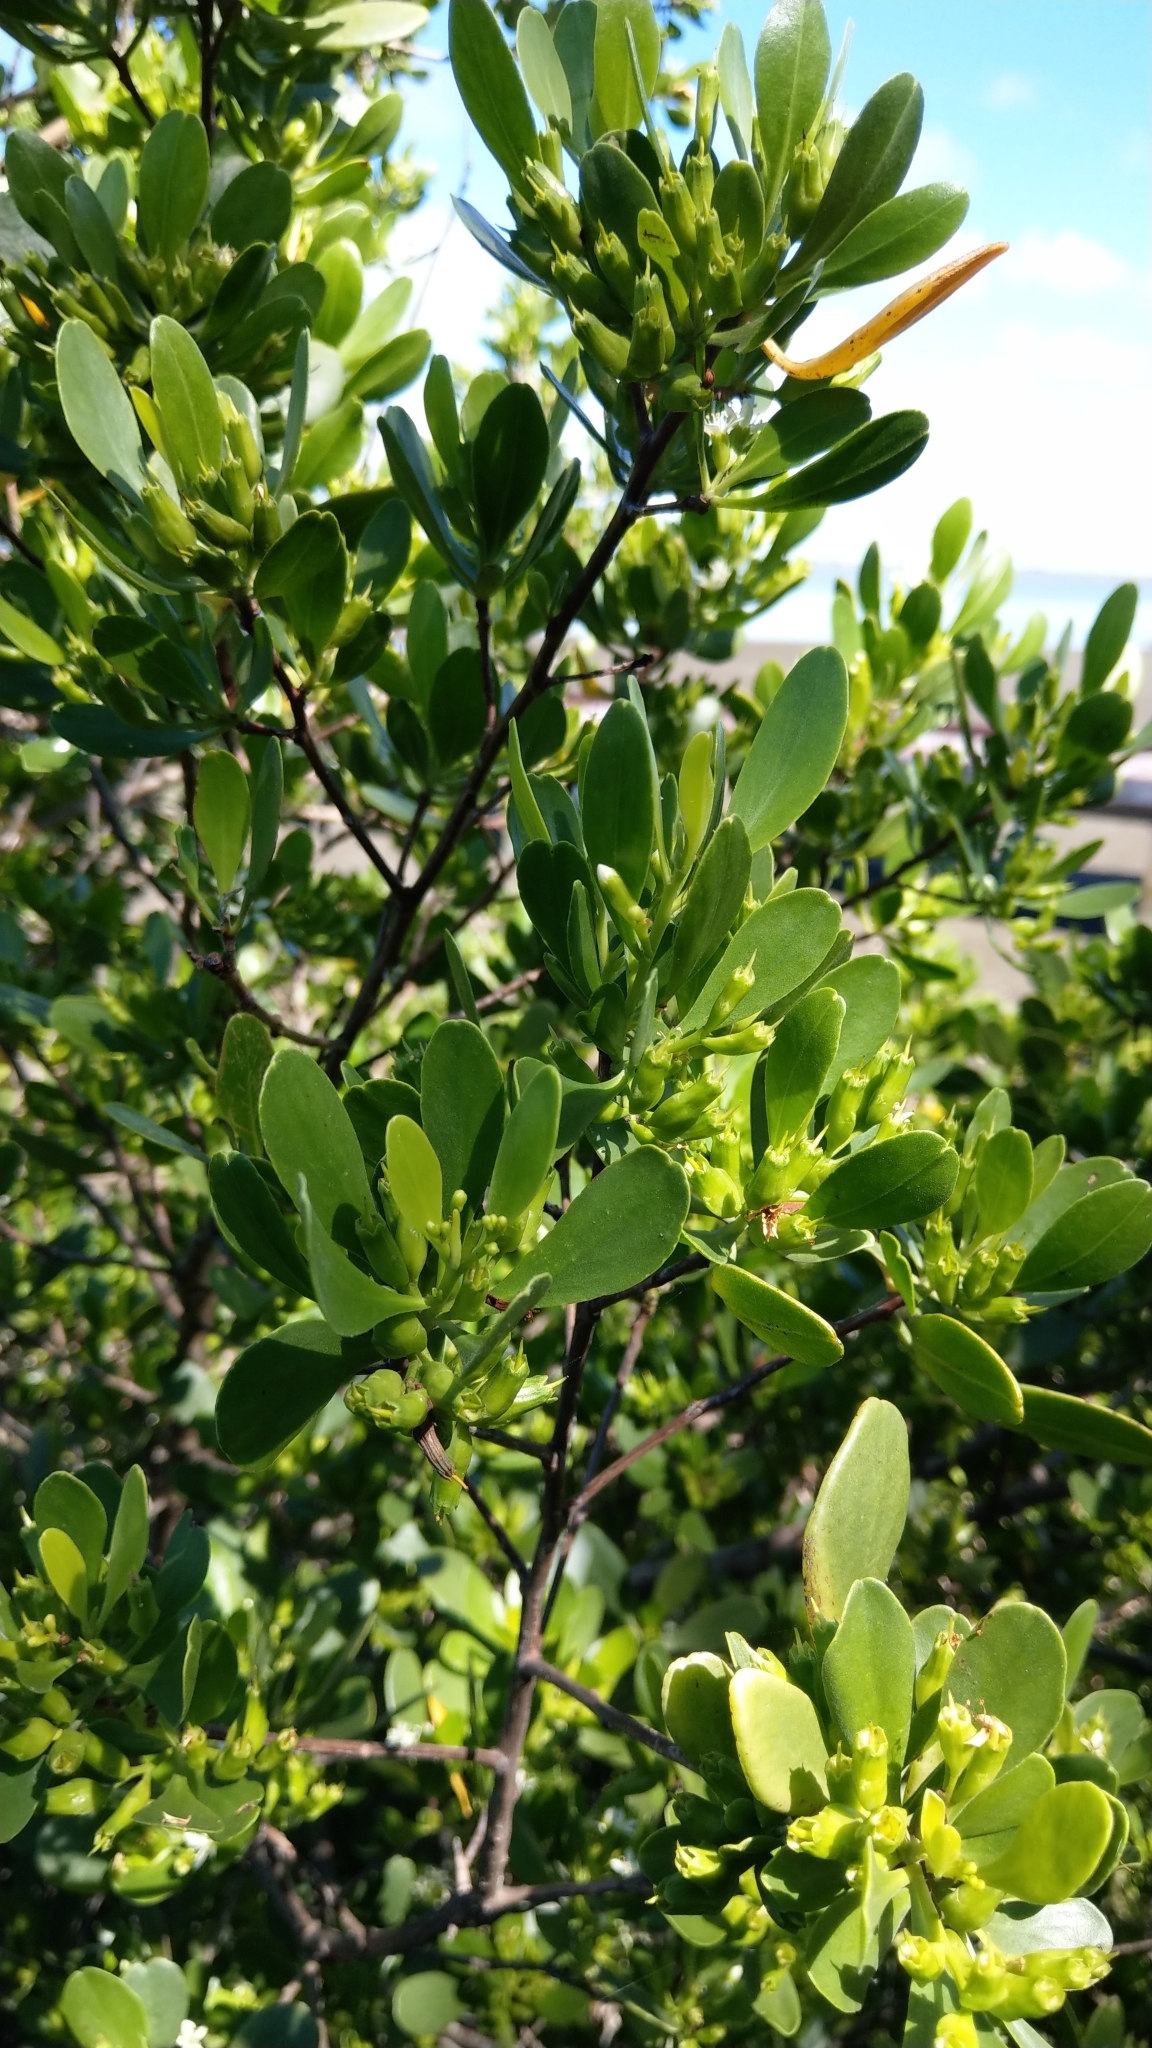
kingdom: Plantae
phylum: Tracheophyta
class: Magnoliopsida
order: Myrtales
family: Combretaceae
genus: Lumnitzera
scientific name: Lumnitzera racemosa
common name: White-flowered black mangrove
